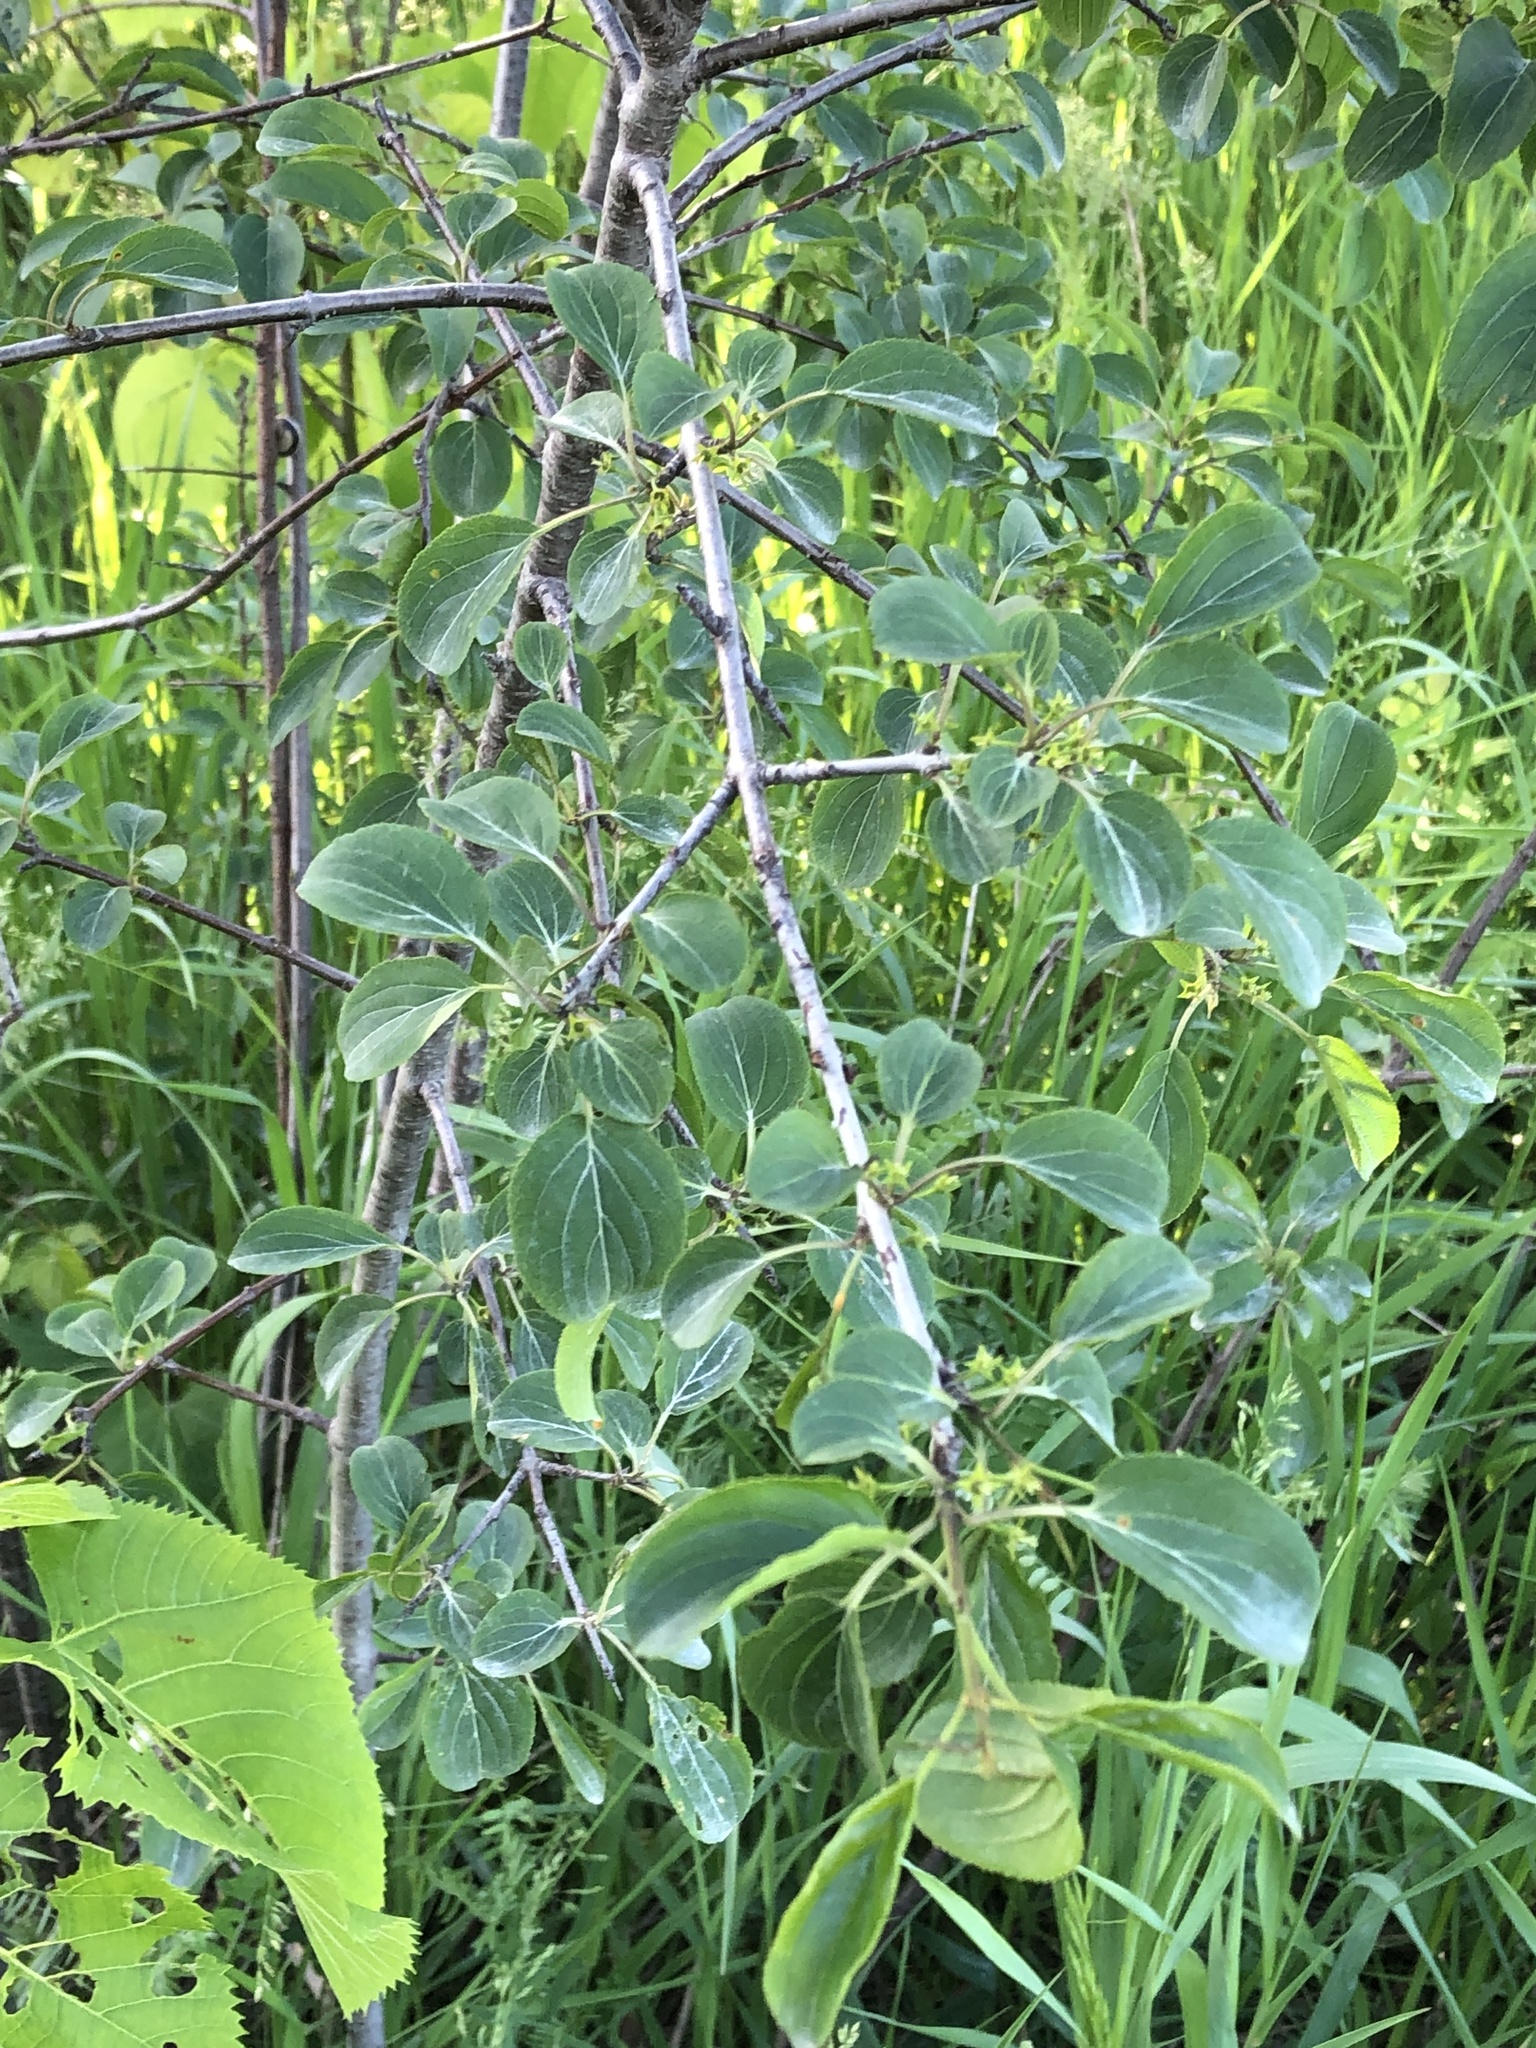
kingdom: Plantae
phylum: Tracheophyta
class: Magnoliopsida
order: Rosales
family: Rhamnaceae
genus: Rhamnus
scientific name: Rhamnus cathartica
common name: Common buckthorn
